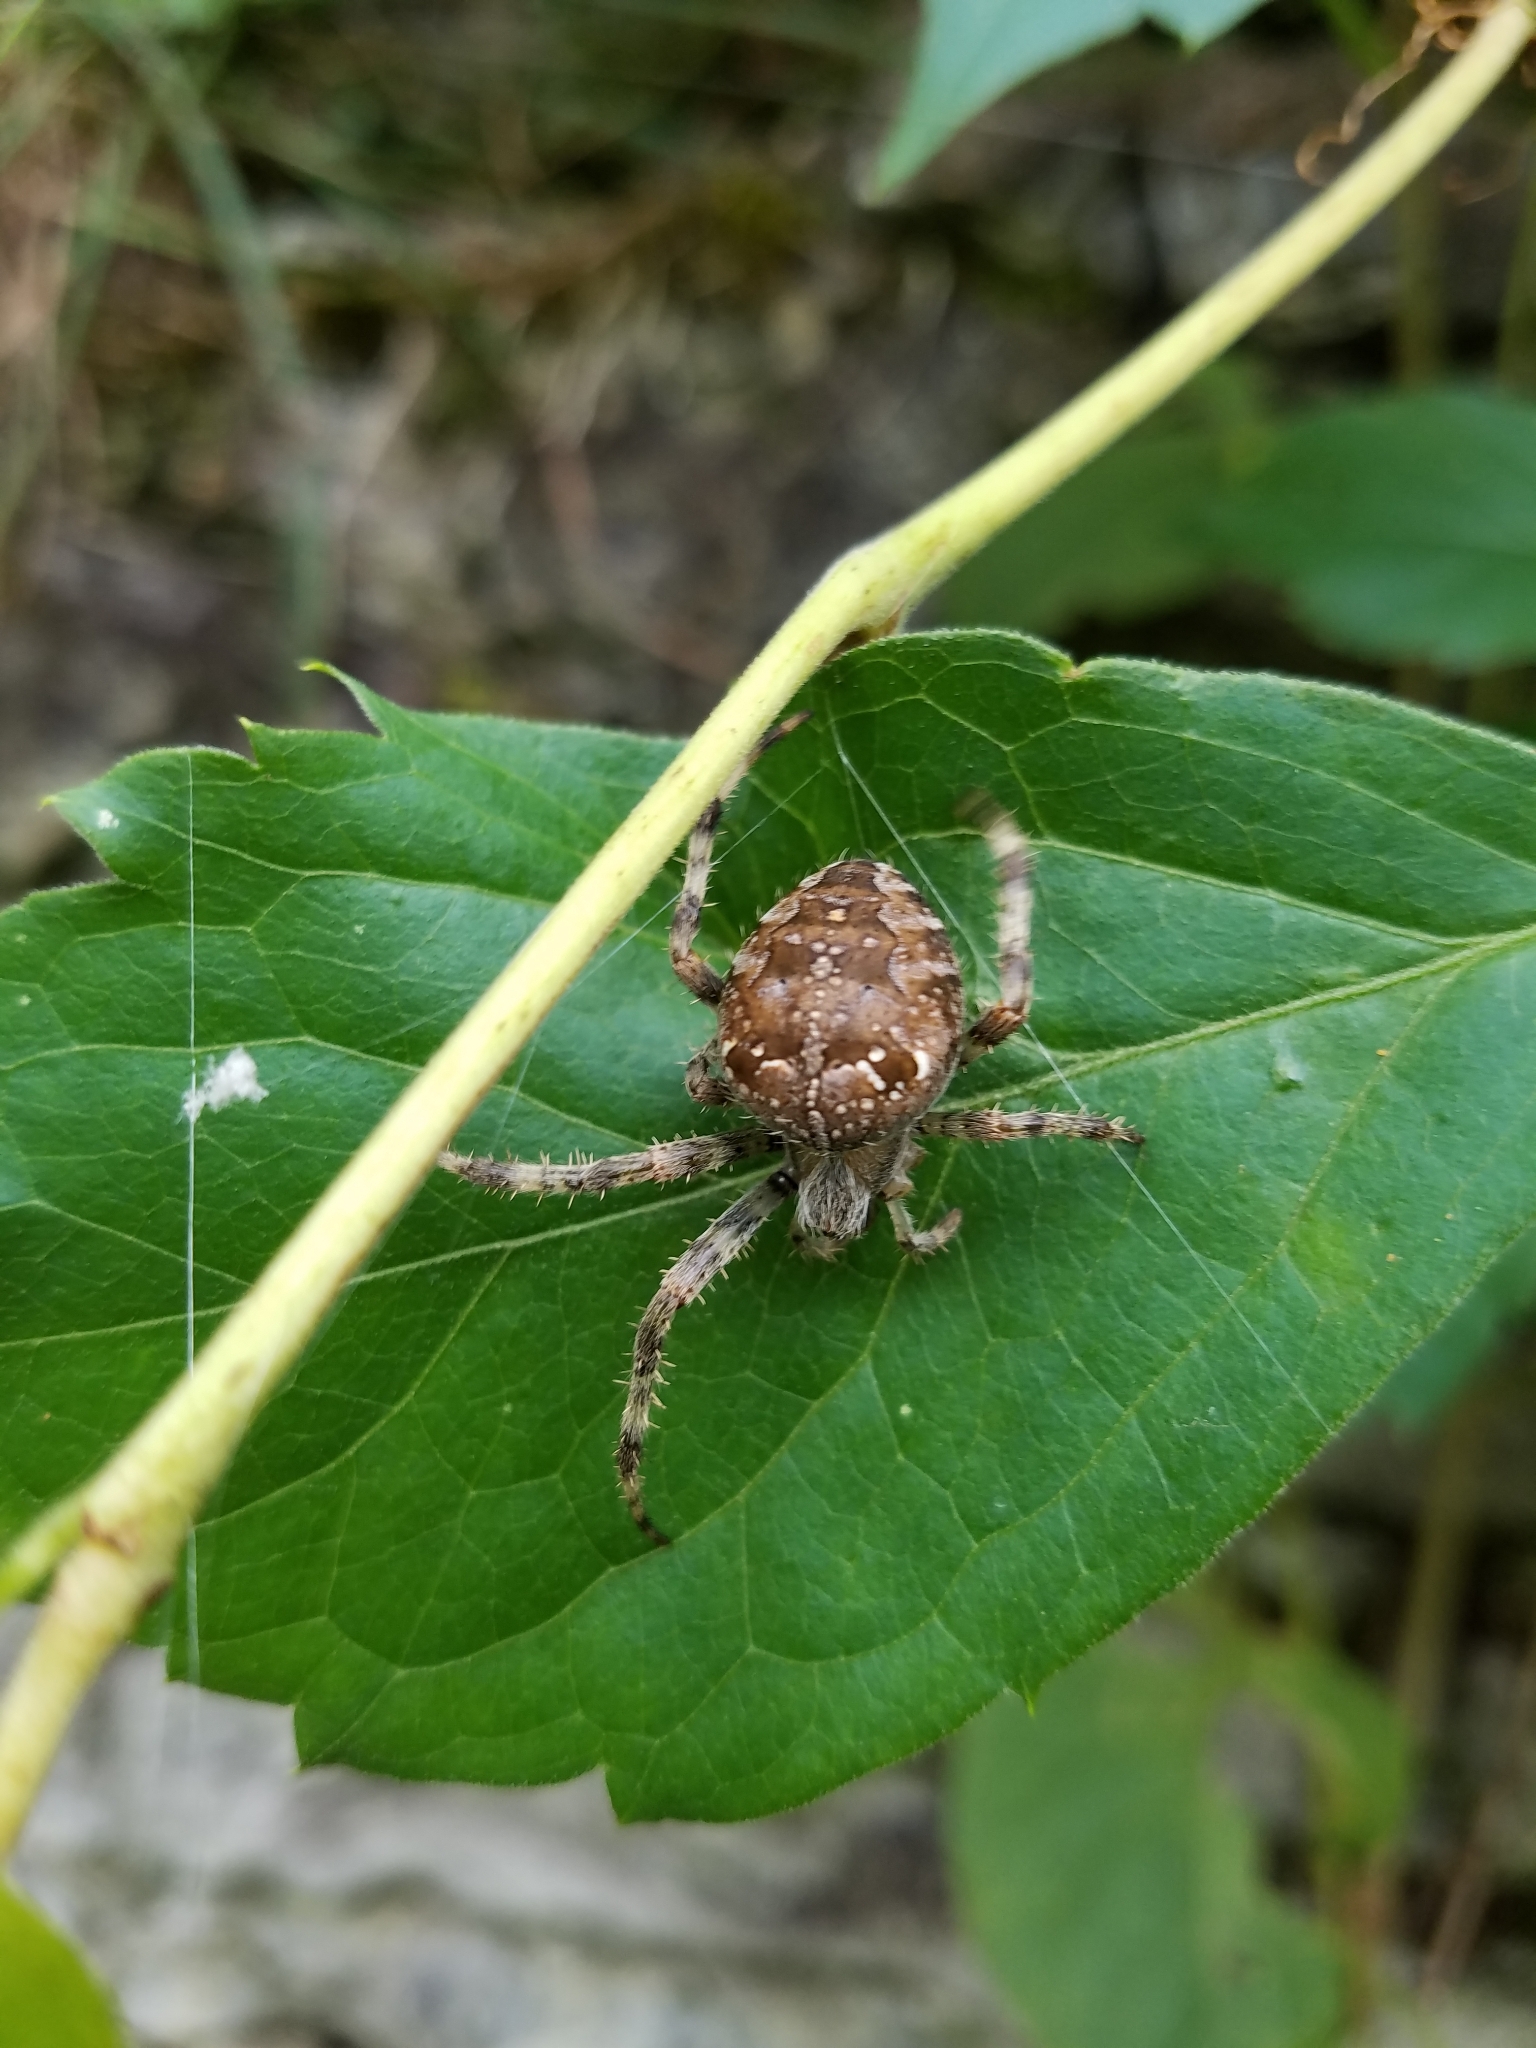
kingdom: Animalia
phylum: Arthropoda
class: Arachnida
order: Araneae
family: Araneidae
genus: Araneus
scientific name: Araneus diadematus
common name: Cross orbweaver
